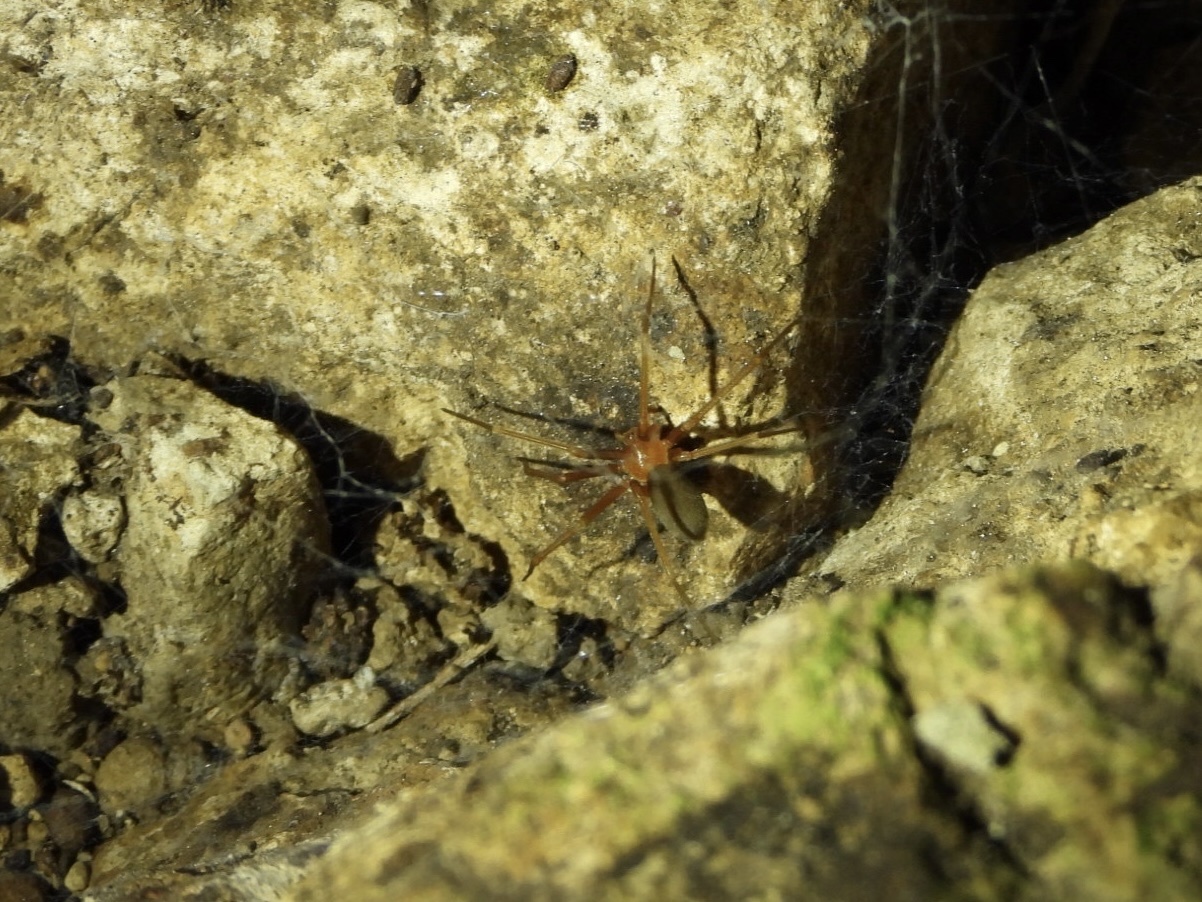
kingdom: Animalia
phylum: Arthropoda
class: Arachnida
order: Araneae
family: Sicariidae
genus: Loxosceles
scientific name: Loxosceles yucatana
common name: Violin spiders
